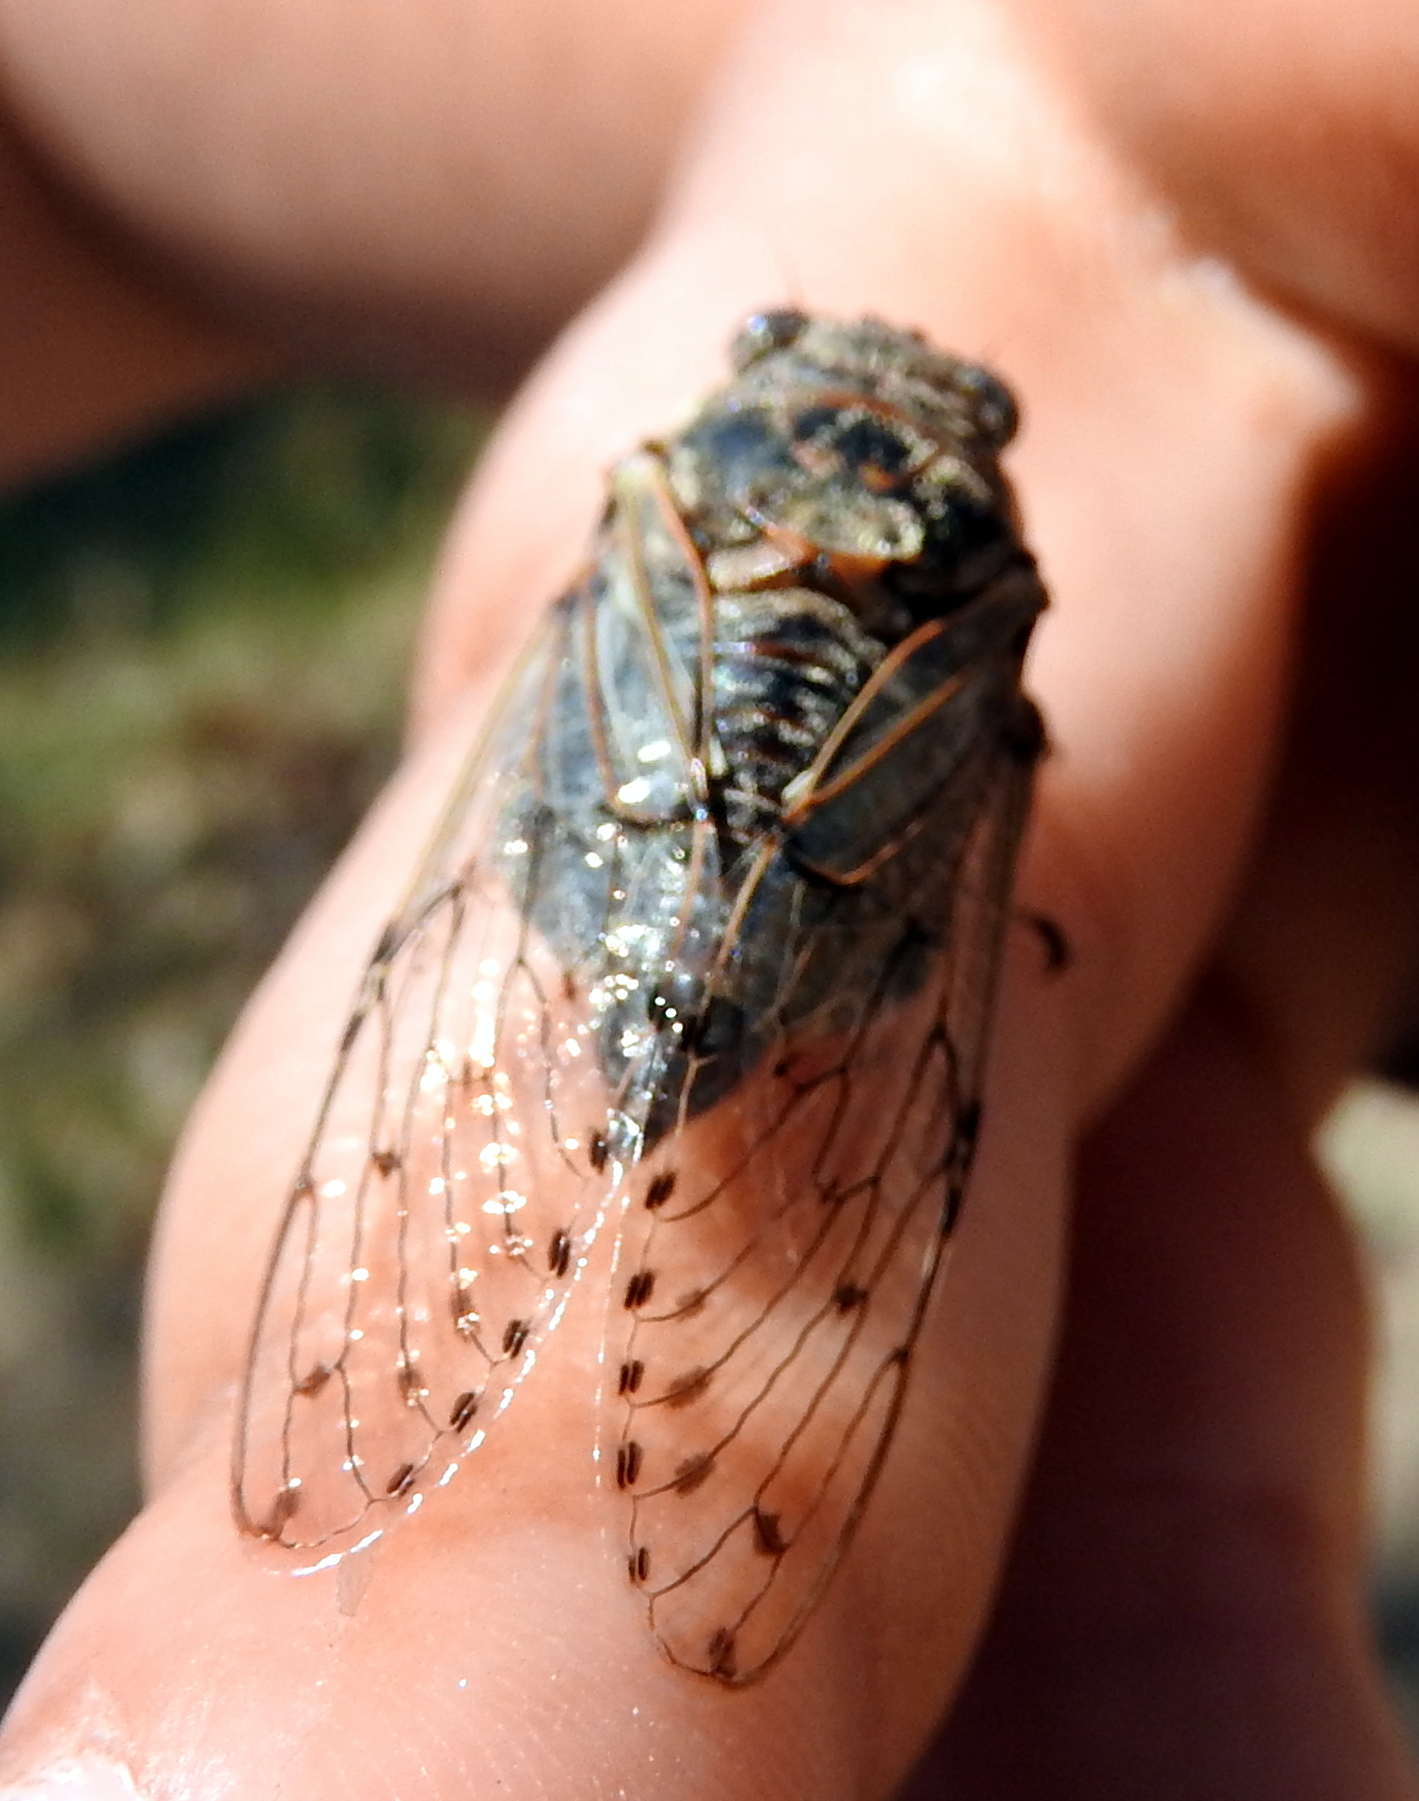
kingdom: Animalia
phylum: Arthropoda
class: Insecta
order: Hemiptera
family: Cicadidae
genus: Proarna
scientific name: Proarna bufo
